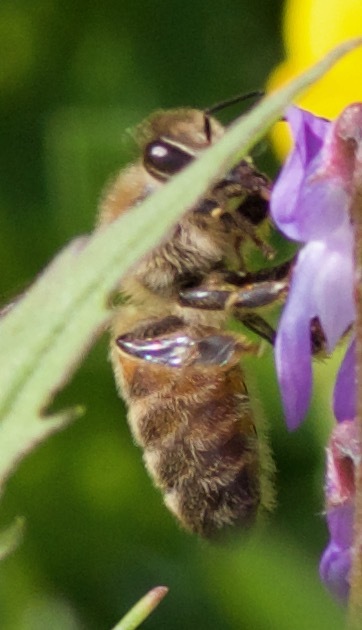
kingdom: Animalia
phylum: Arthropoda
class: Insecta
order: Hymenoptera
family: Apidae
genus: Apis
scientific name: Apis mellifera
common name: Honey bee
